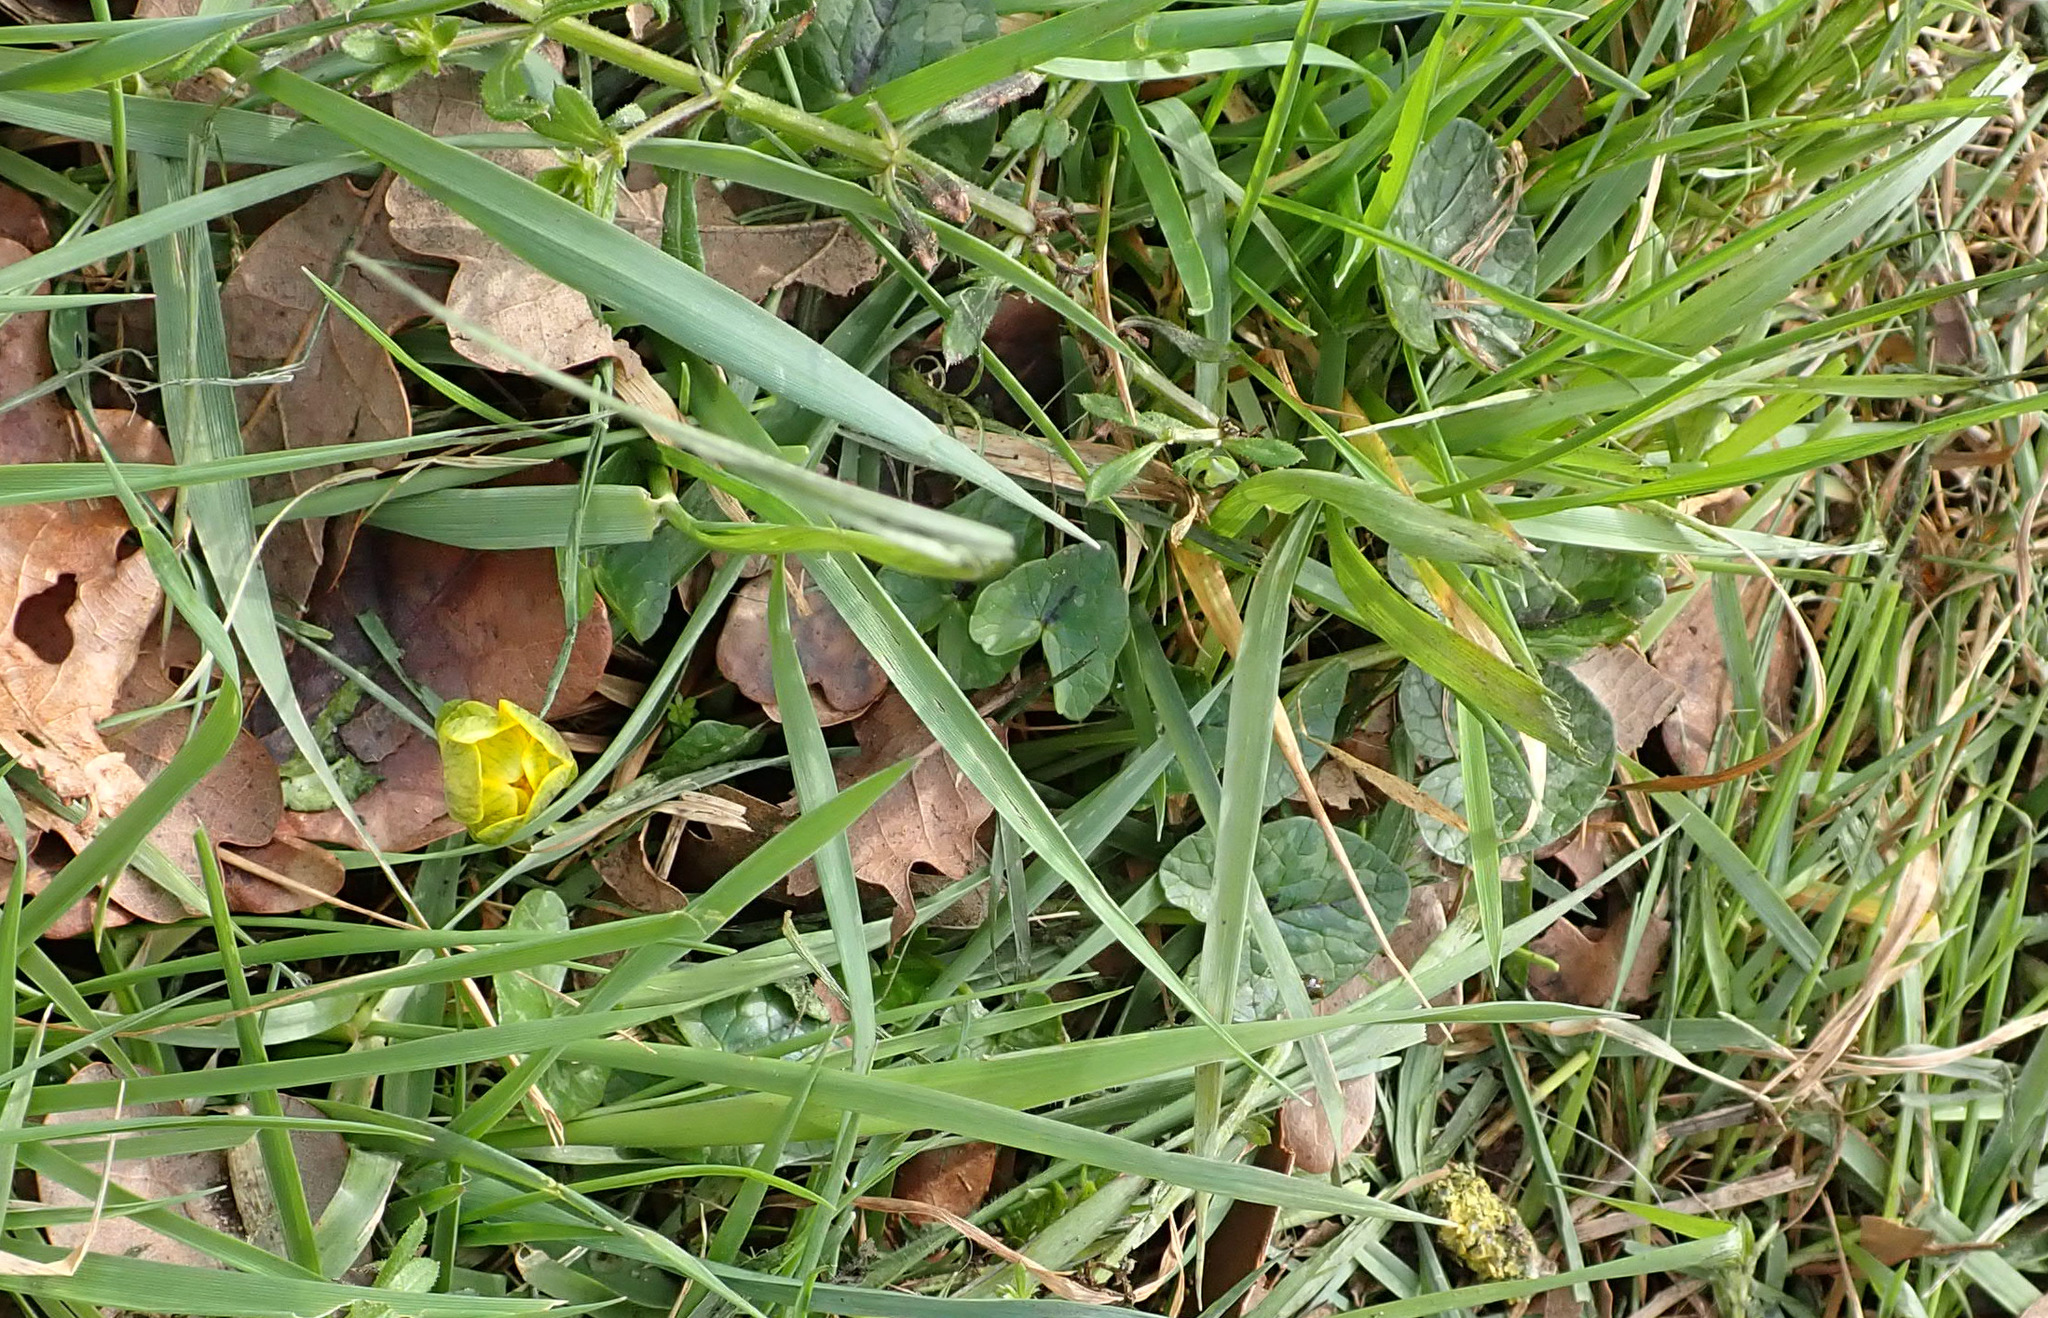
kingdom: Plantae
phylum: Tracheophyta
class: Magnoliopsida
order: Ranunculales
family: Ranunculaceae
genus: Ficaria
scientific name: Ficaria verna
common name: Lesser celandine
